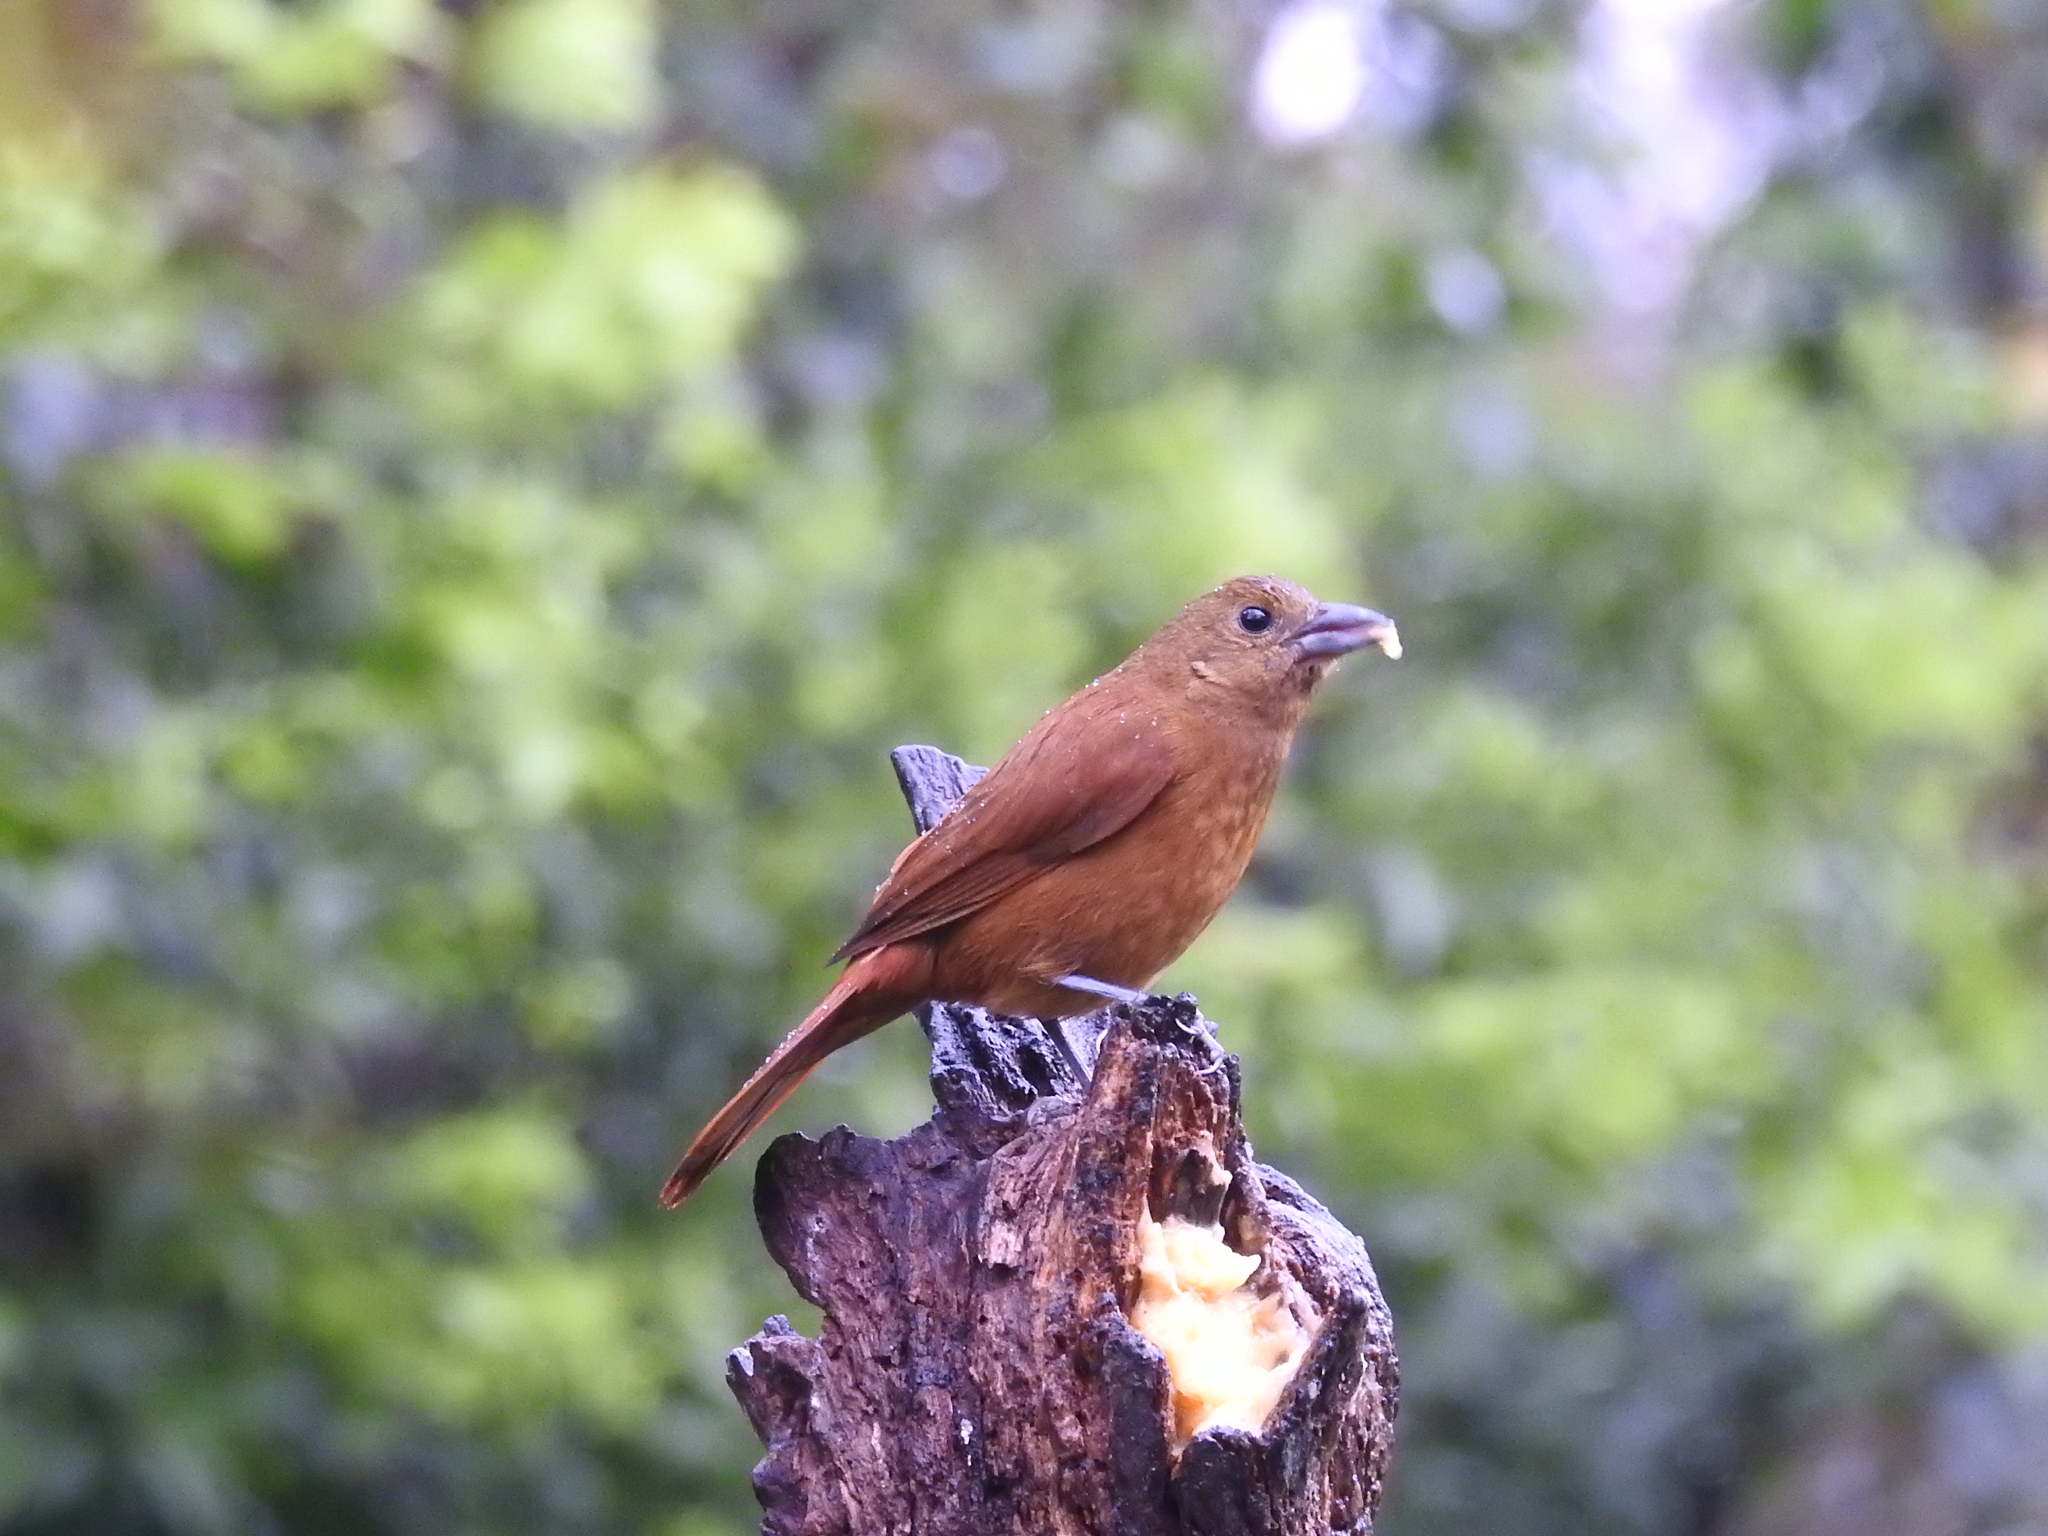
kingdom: Animalia
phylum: Chordata
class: Aves
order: Passeriformes
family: Thraupidae
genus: Tachyphonus
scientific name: Tachyphonus coronatus
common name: Ruby-crowned tanager
